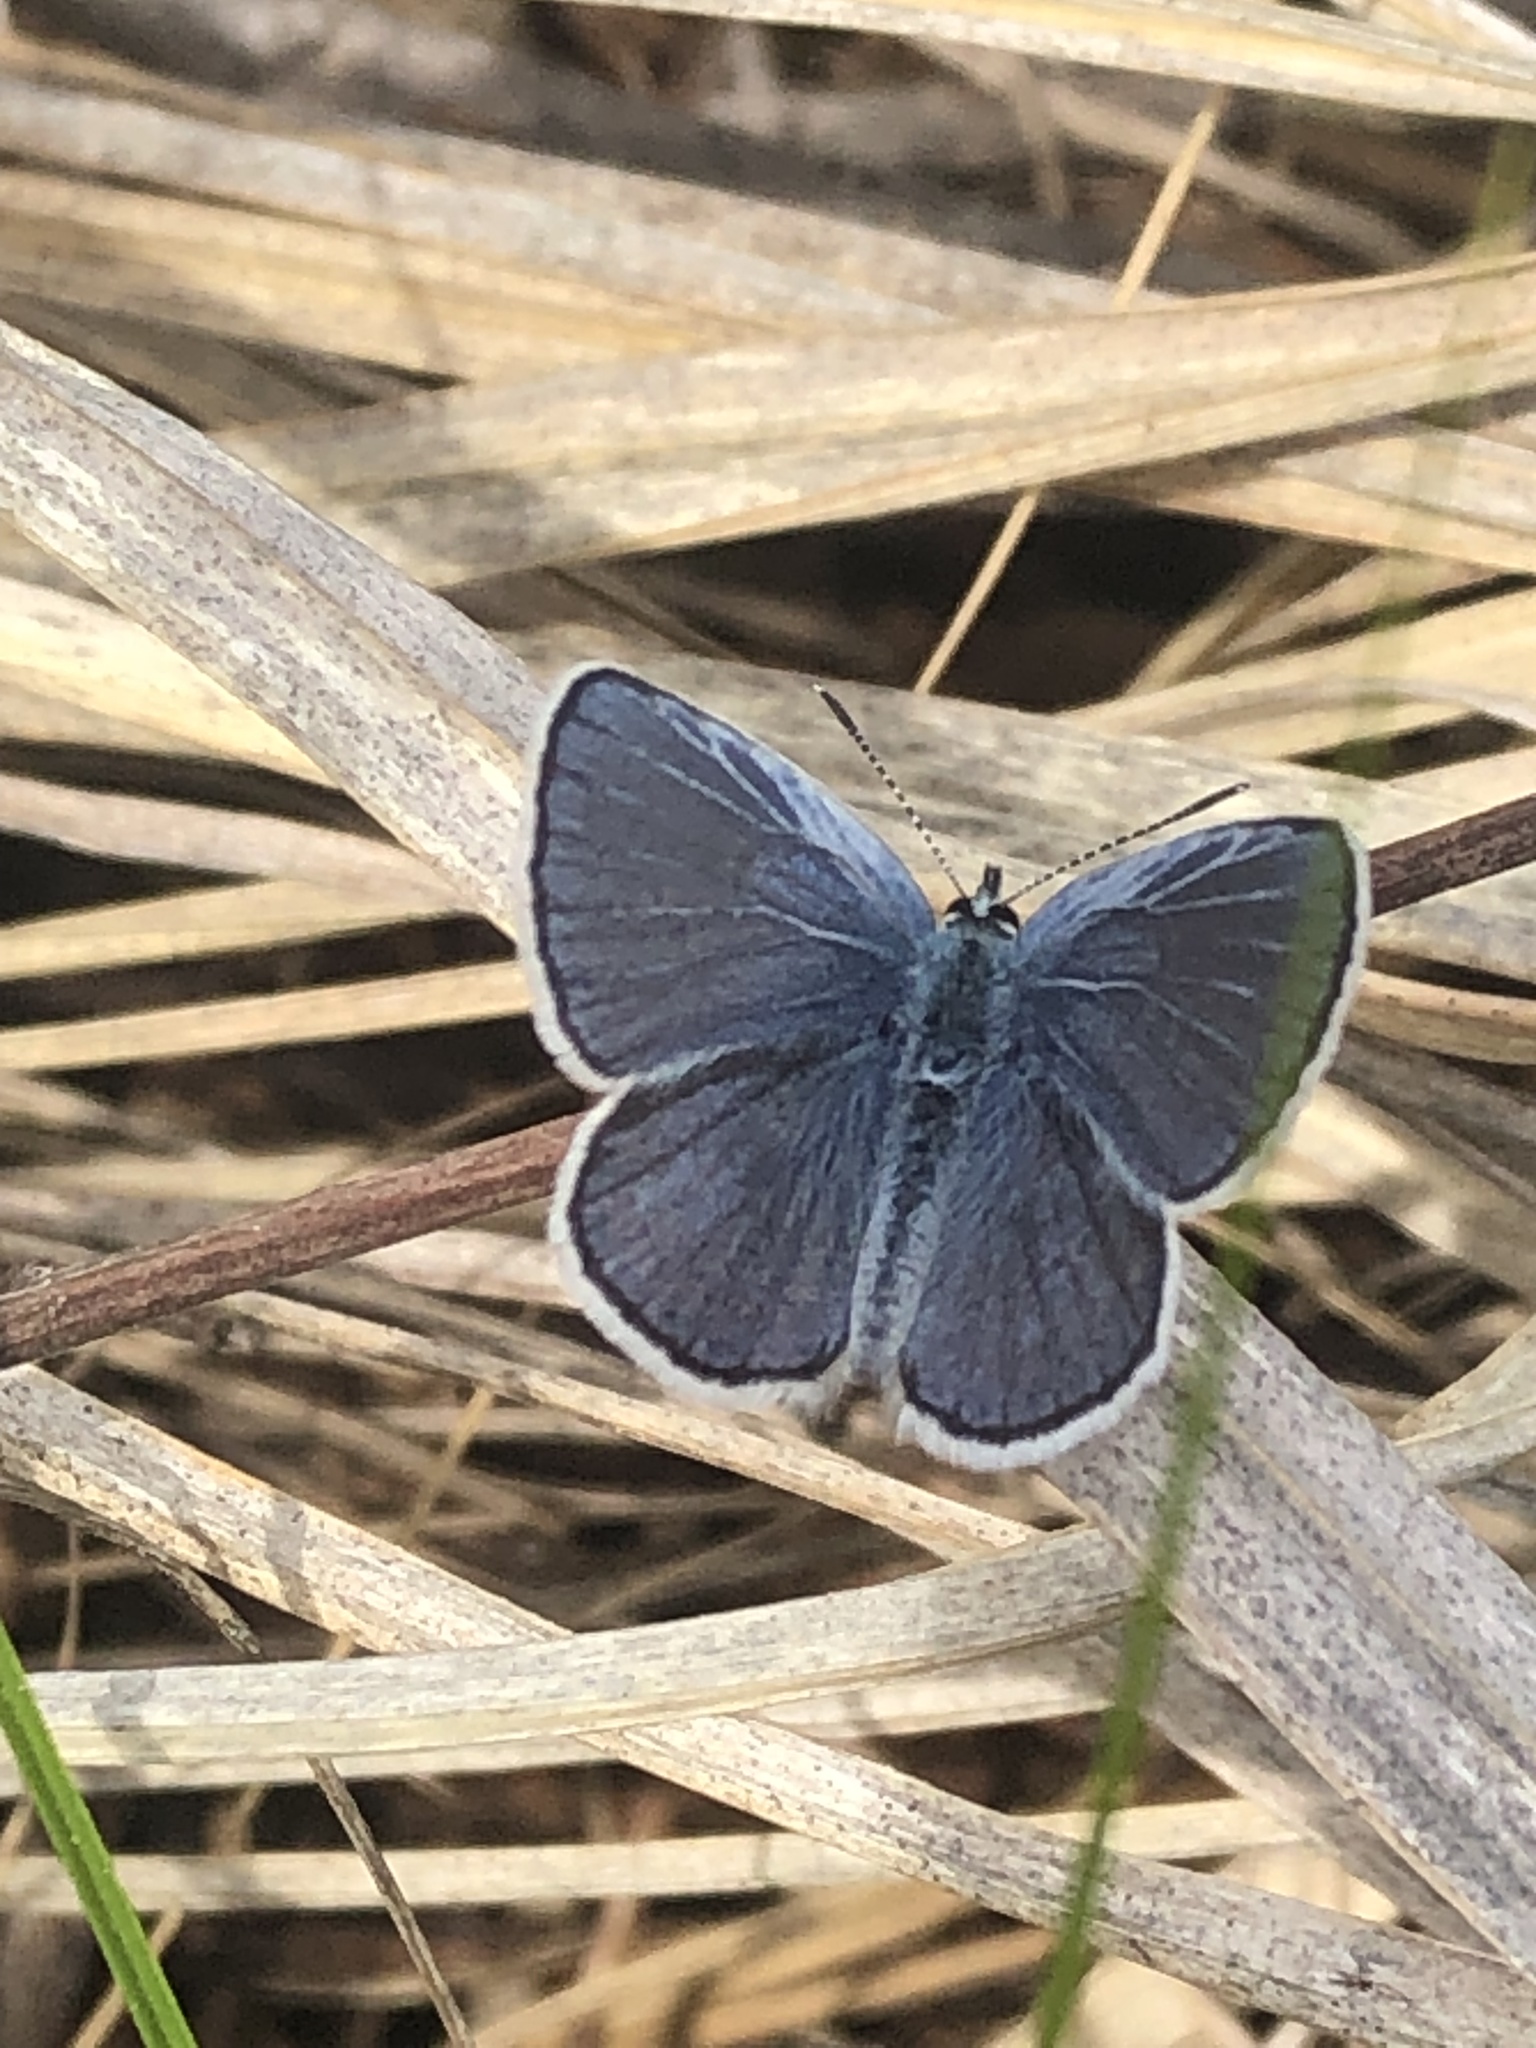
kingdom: Animalia
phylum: Arthropoda
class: Insecta
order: Lepidoptera
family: Lycaenidae
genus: Plebejus
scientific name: Plebejus samuelis
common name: Karner blue
